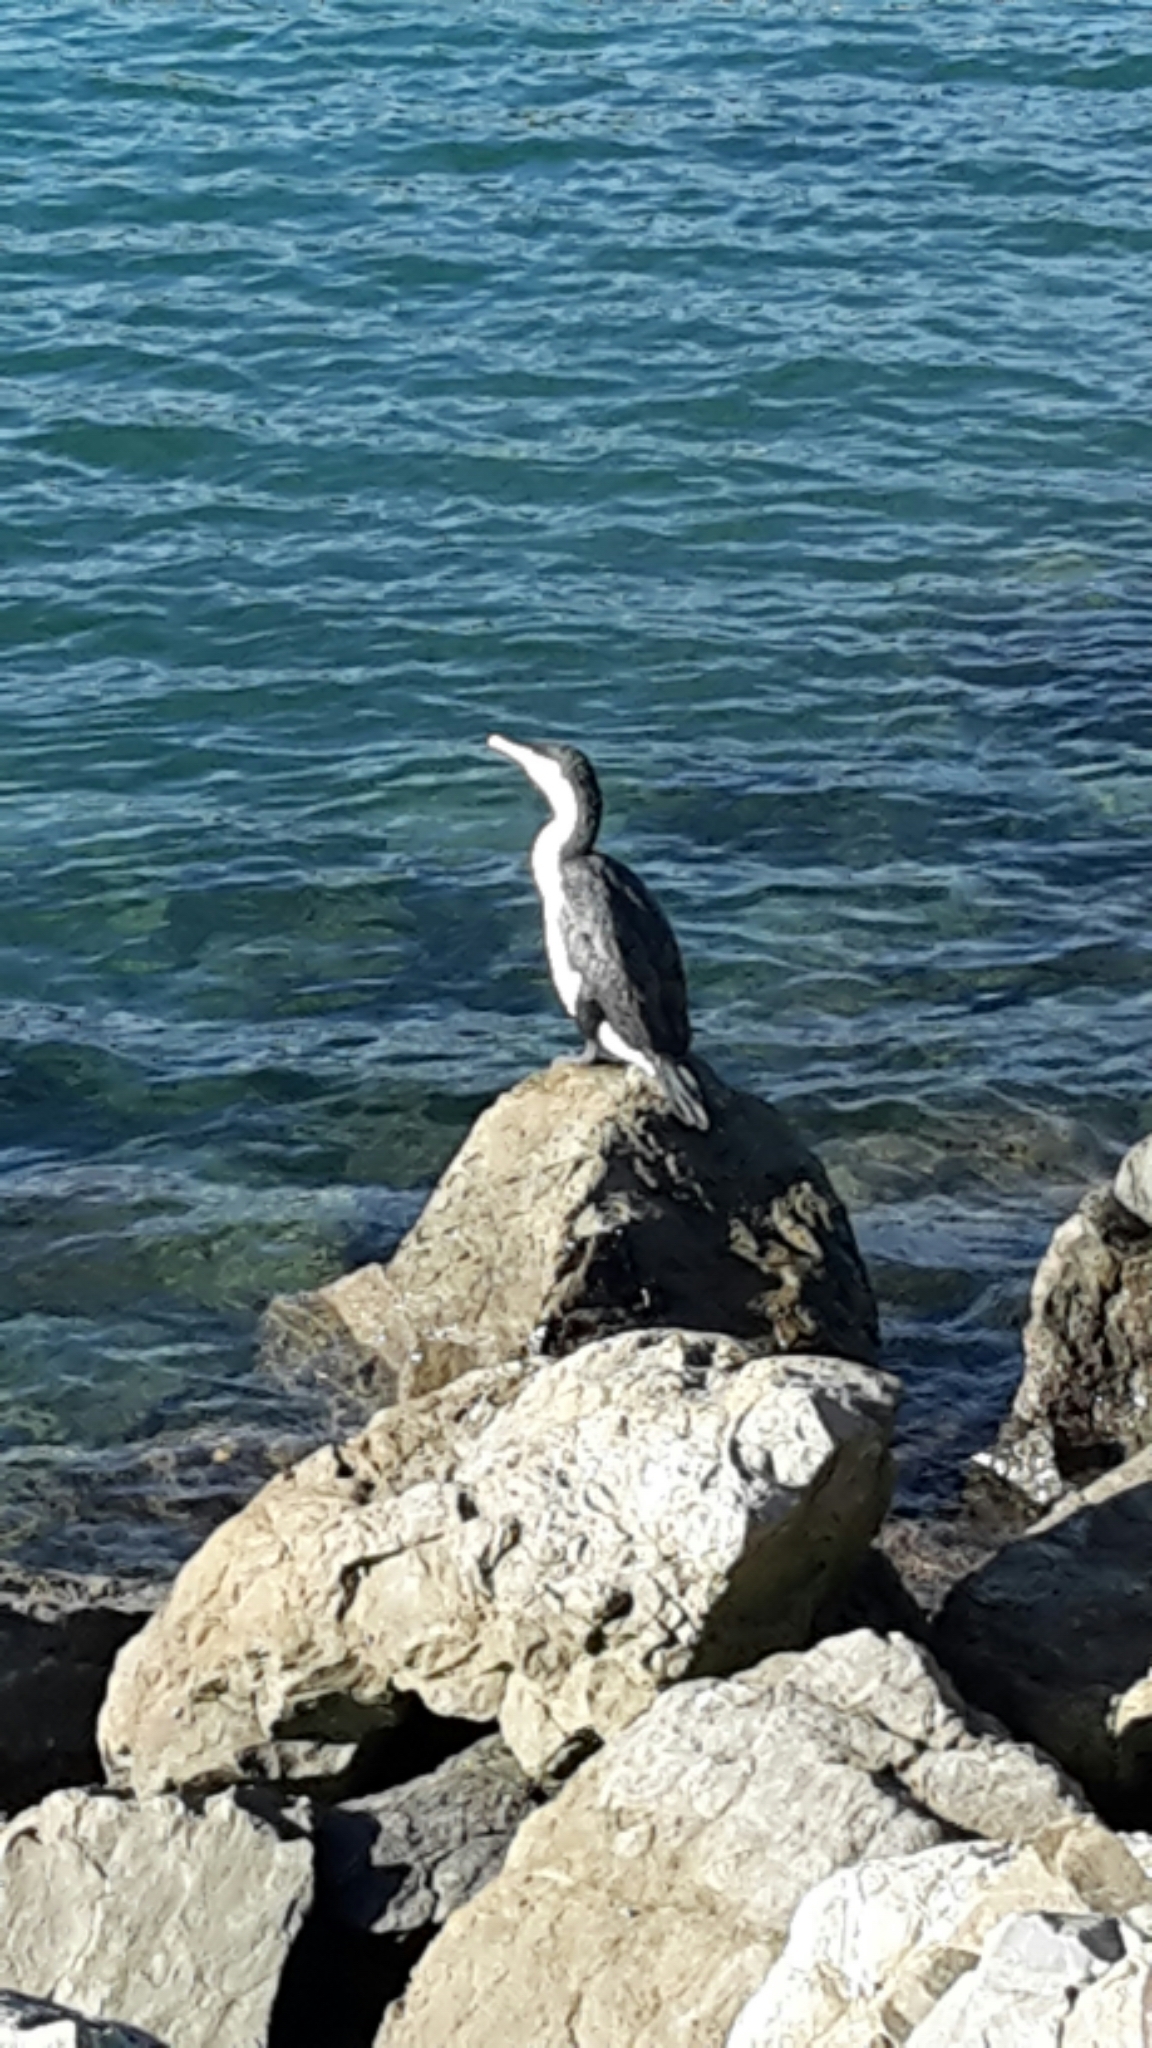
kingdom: Animalia
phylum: Chordata
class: Aves
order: Suliformes
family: Phalacrocoracidae
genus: Phalacrocorax
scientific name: Phalacrocorax varius
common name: Pied cormorant
